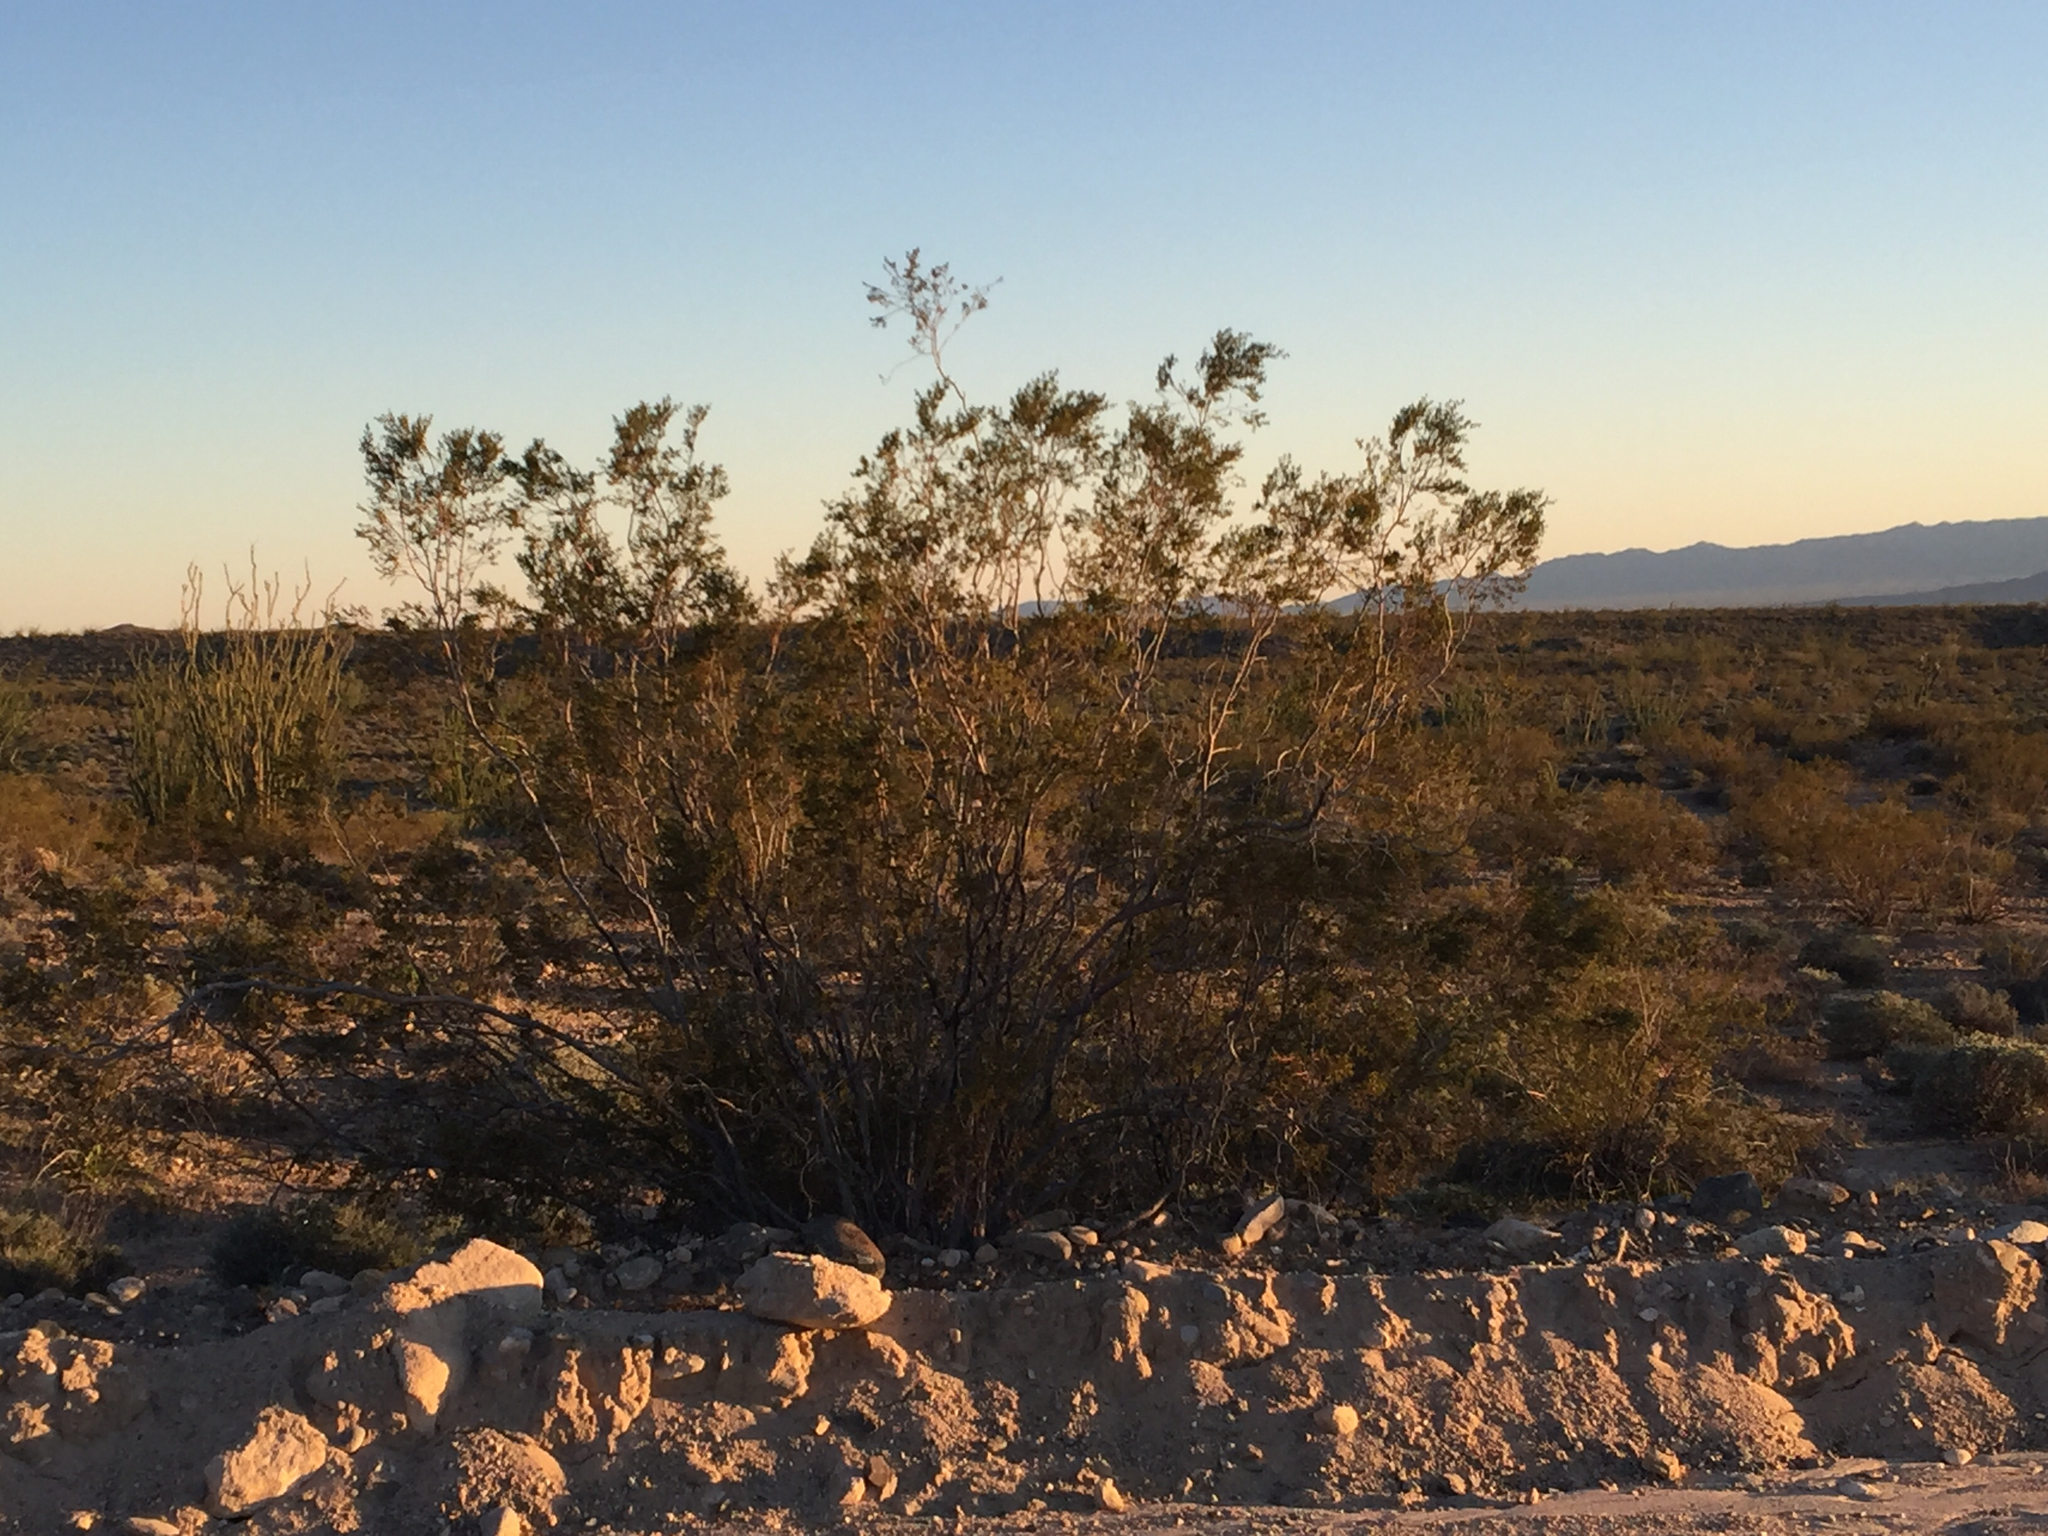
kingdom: Plantae
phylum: Tracheophyta
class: Magnoliopsida
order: Zygophyllales
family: Zygophyllaceae
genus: Larrea
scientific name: Larrea tridentata
